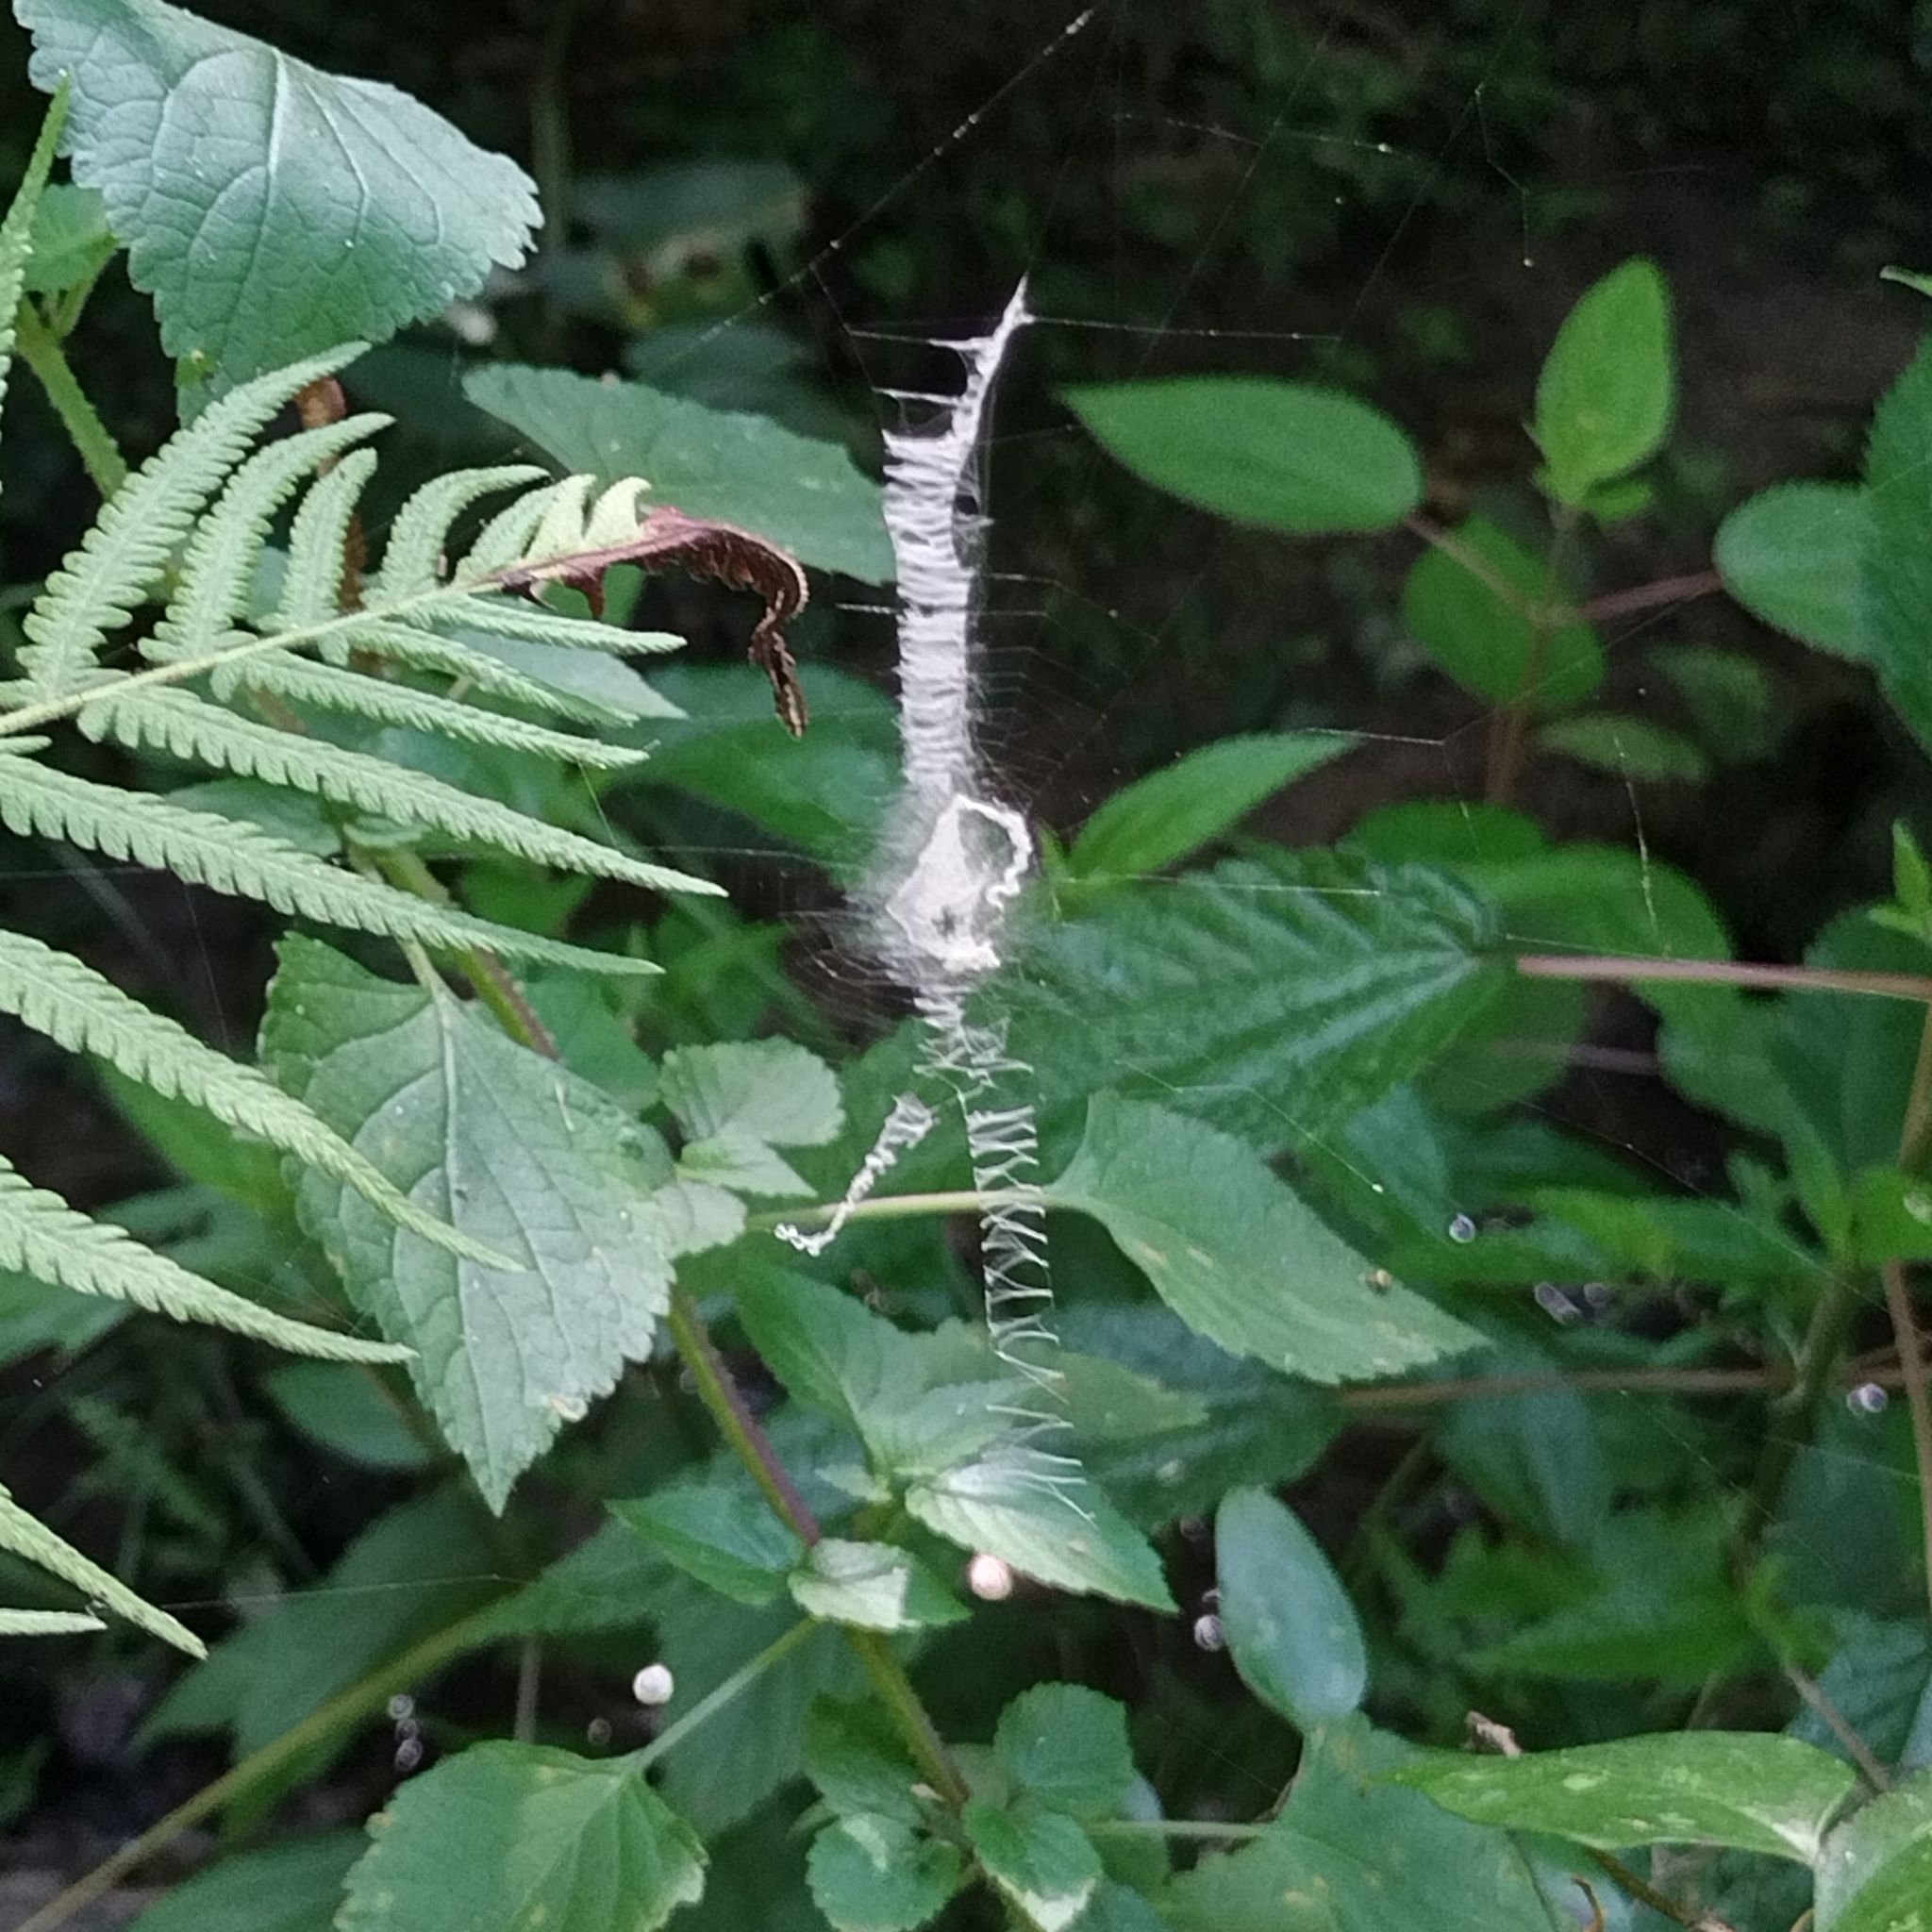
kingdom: Animalia
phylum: Arthropoda
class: Arachnida
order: Araneae
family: Araneidae
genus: Argiope
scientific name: Argiope aurantia
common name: Orb weavers
